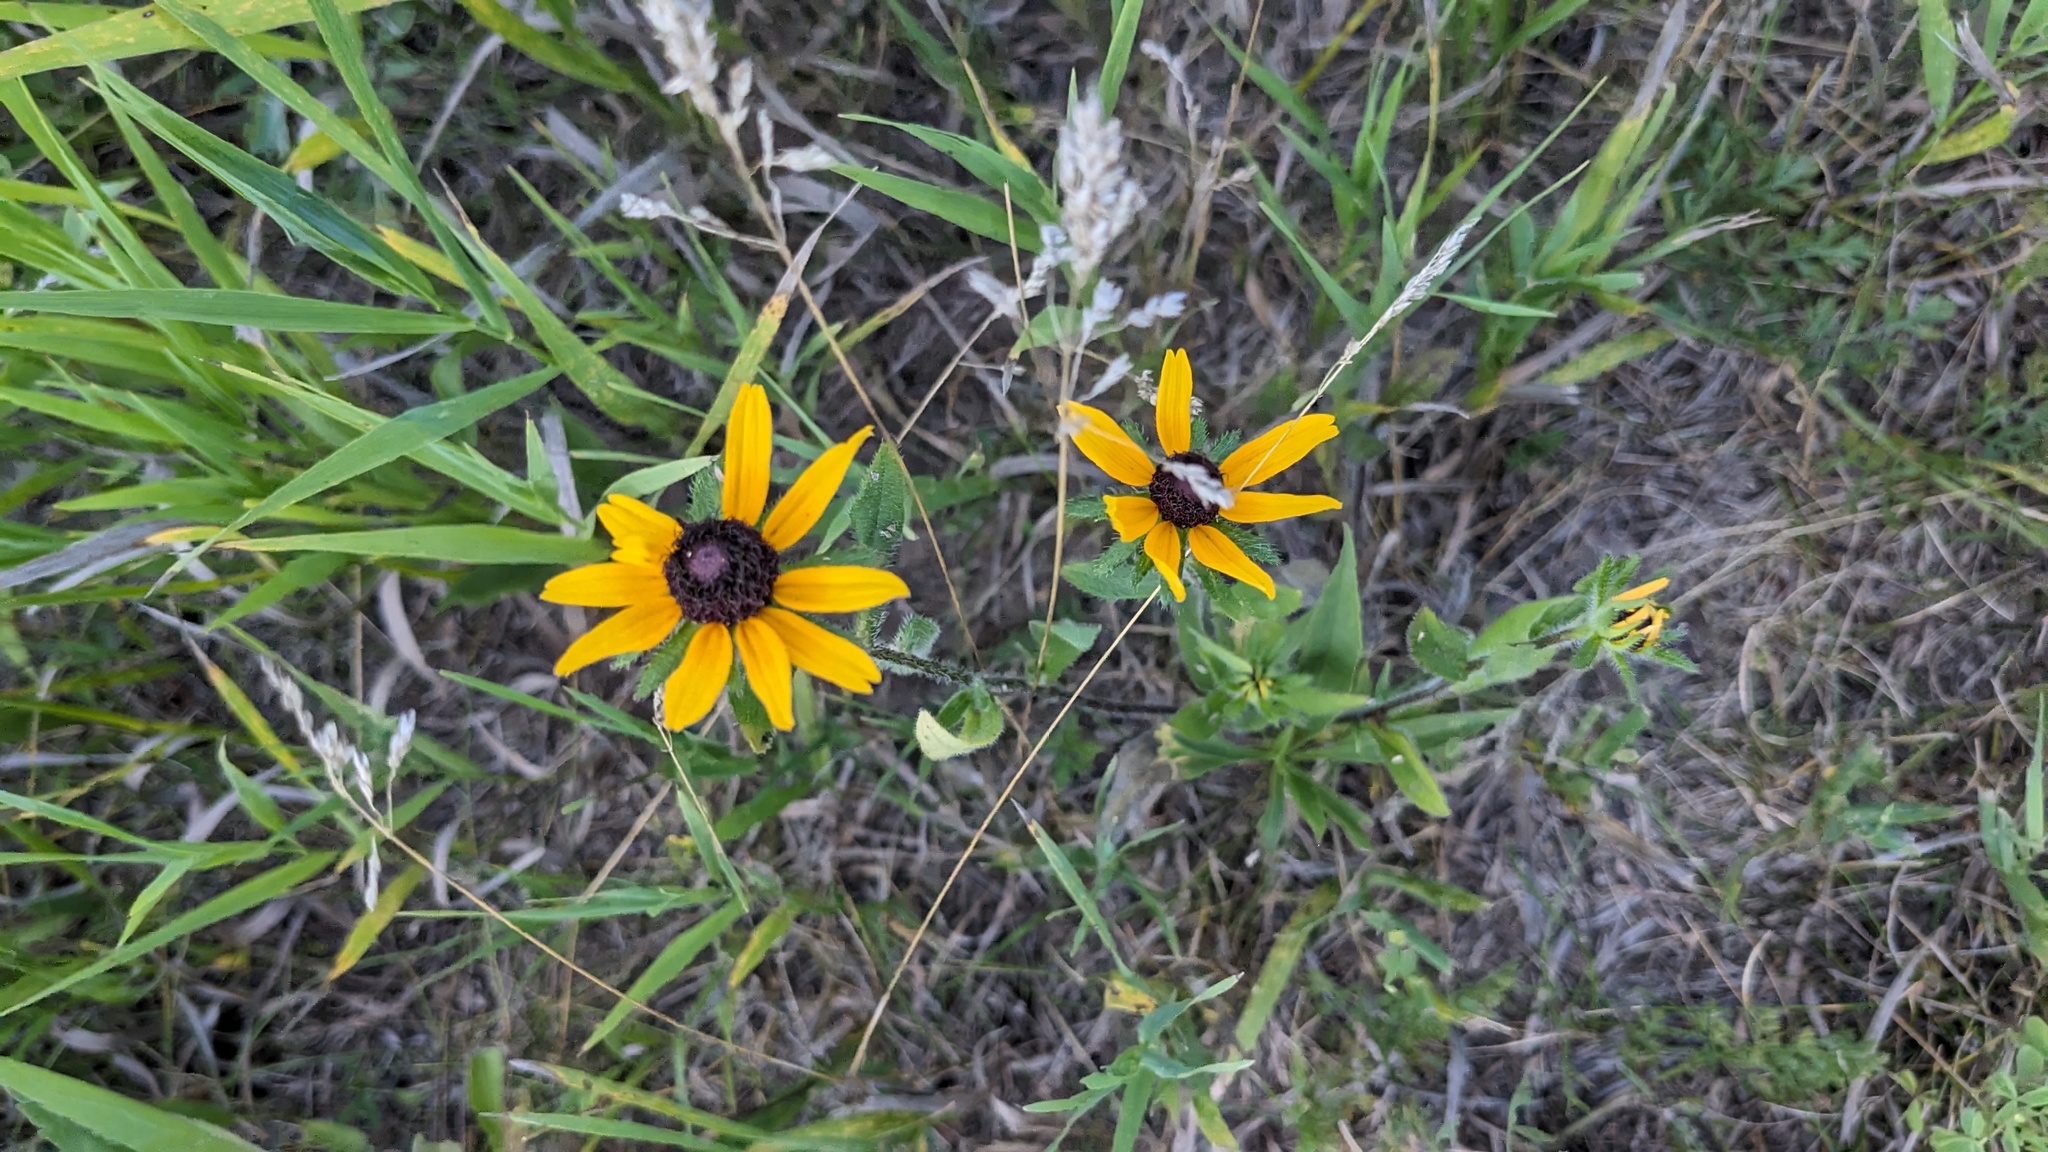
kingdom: Plantae
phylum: Tracheophyta
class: Magnoliopsida
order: Asterales
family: Asteraceae
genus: Rudbeckia
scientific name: Rudbeckia hirta
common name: Black-eyed-susan
